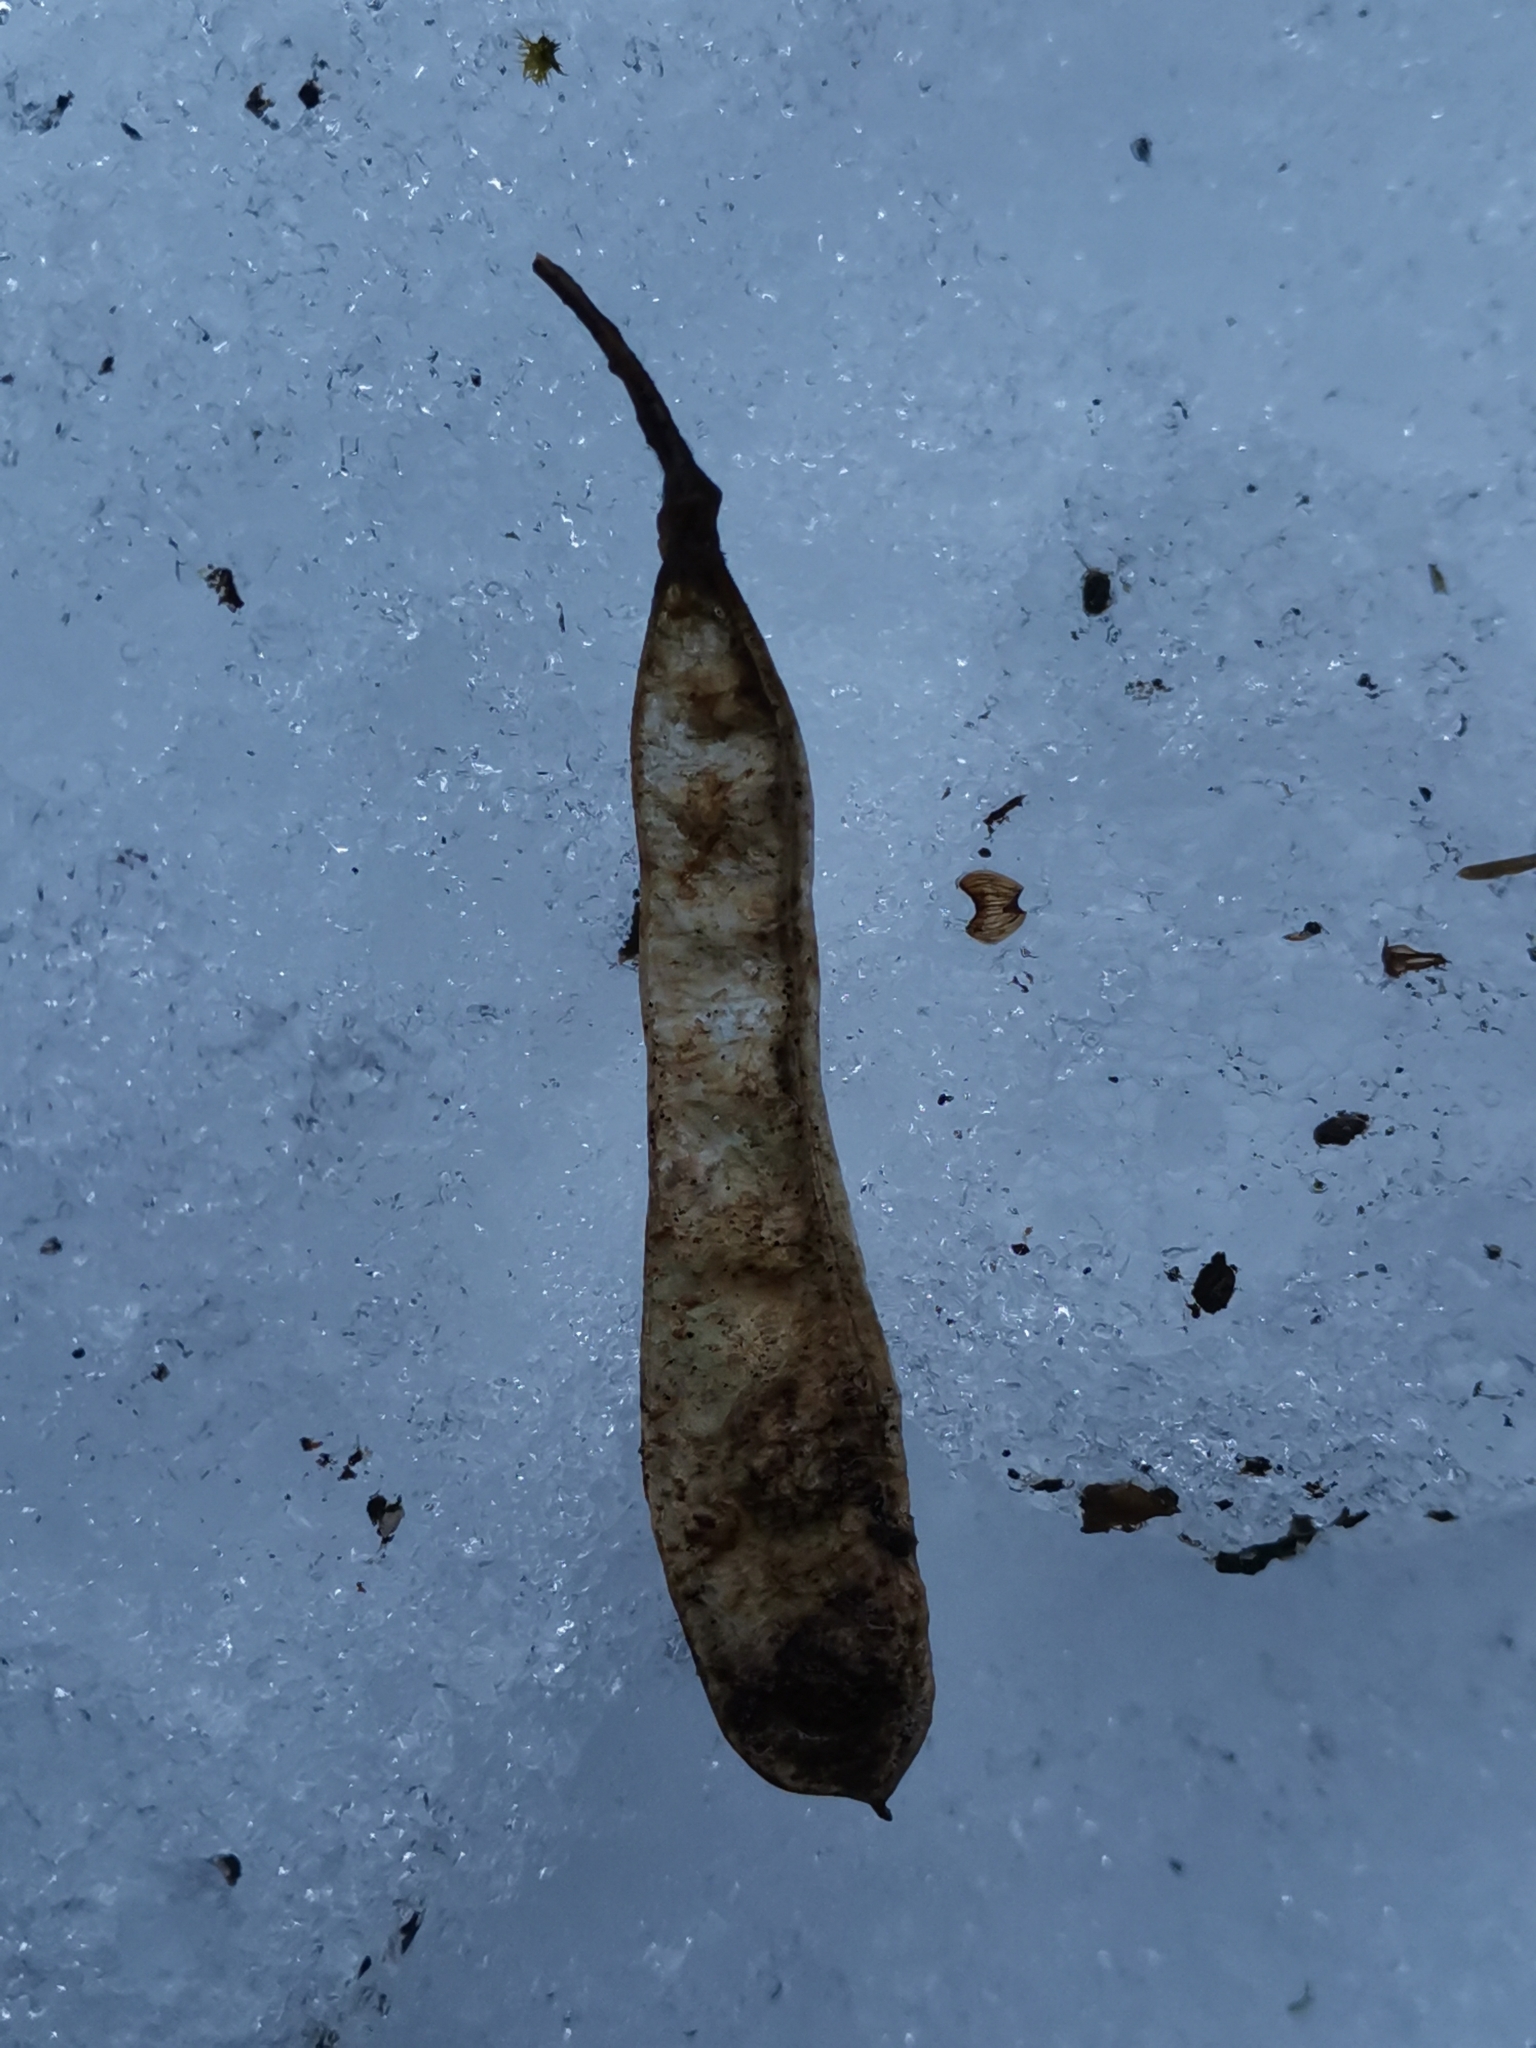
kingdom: Plantae
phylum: Tracheophyta
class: Magnoliopsida
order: Fabales
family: Fabaceae
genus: Laburnum
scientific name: Laburnum alpinum
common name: Scottish laburnum
